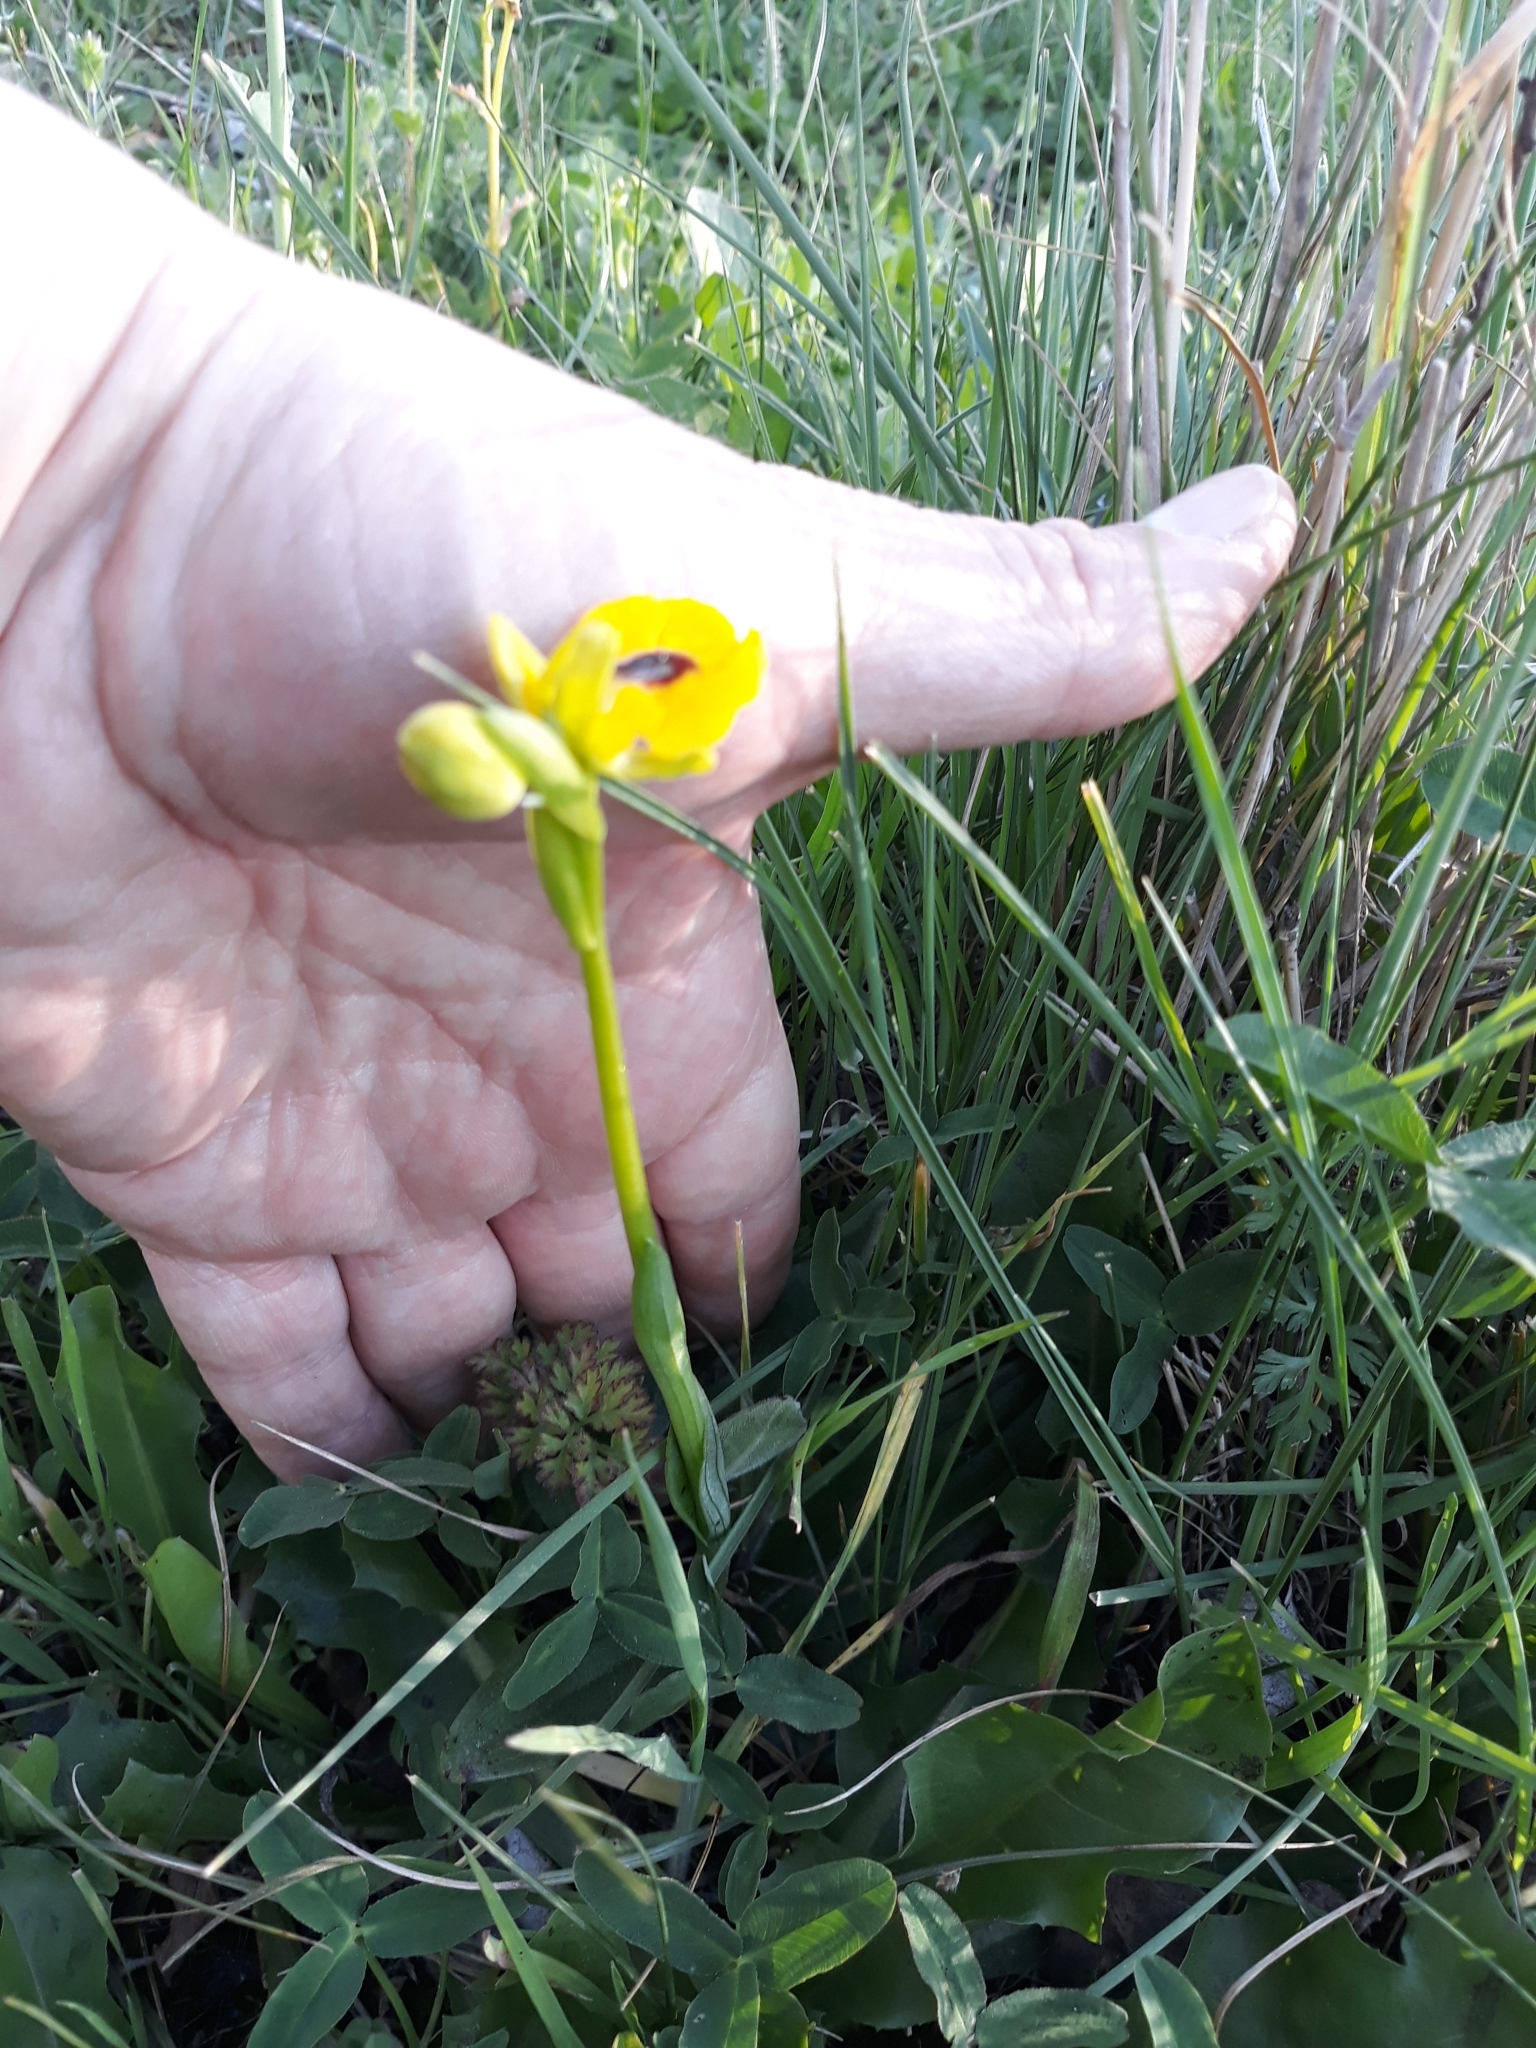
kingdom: Plantae
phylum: Tracheophyta
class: Liliopsida
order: Asparagales
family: Orchidaceae
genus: Ophrys
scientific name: Ophrys lutea
